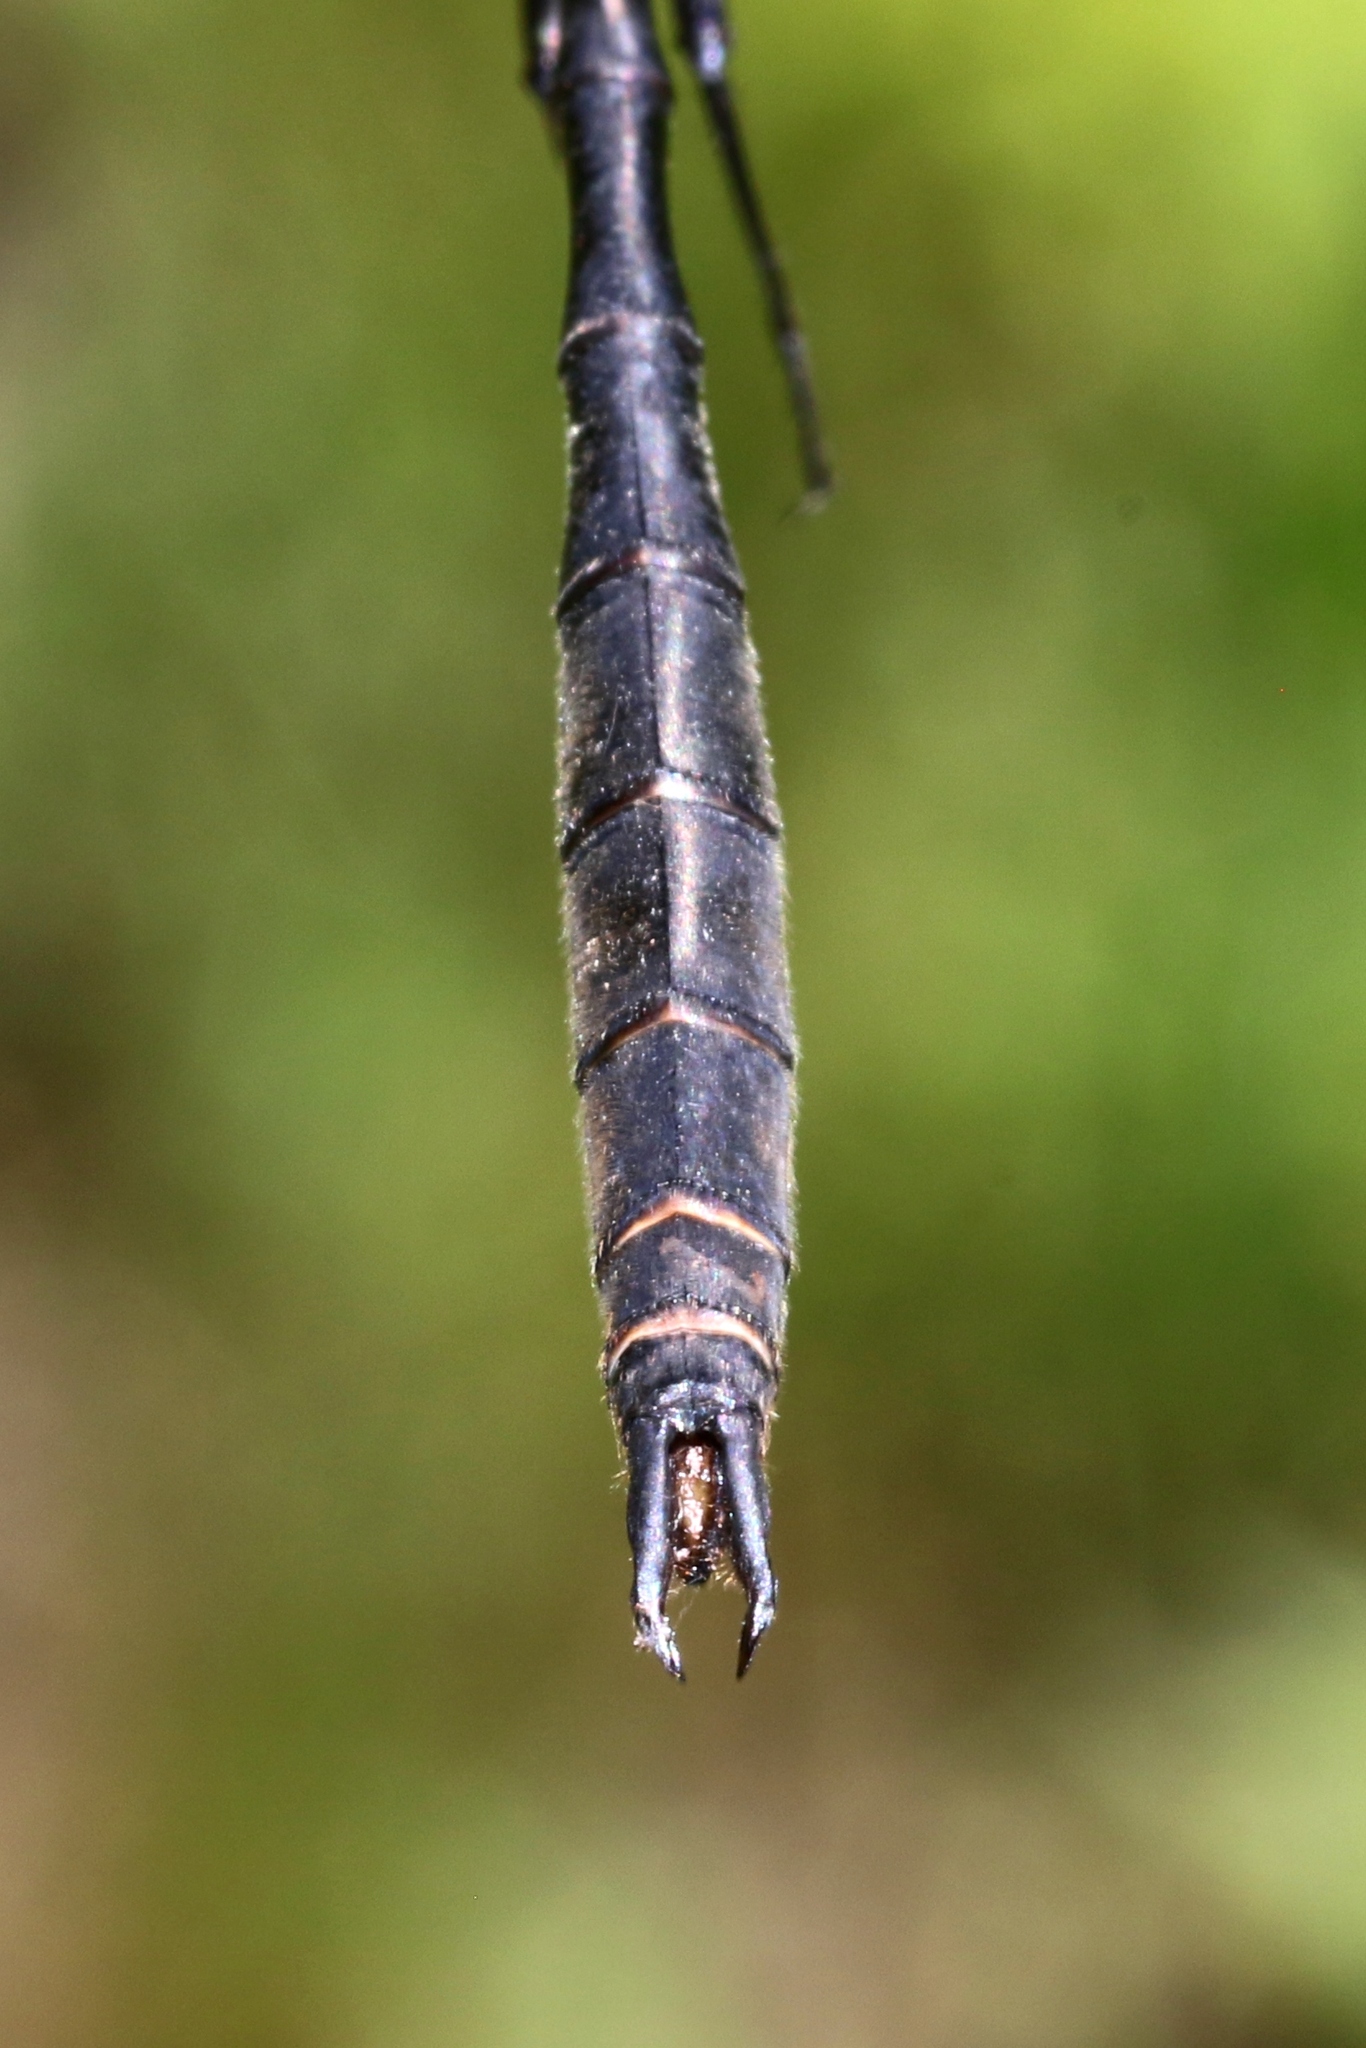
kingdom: Animalia
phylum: Arthropoda
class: Insecta
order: Odonata
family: Corduliidae
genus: Somatochlora
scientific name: Somatochlora kennedyi
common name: Kennedy's emerald
